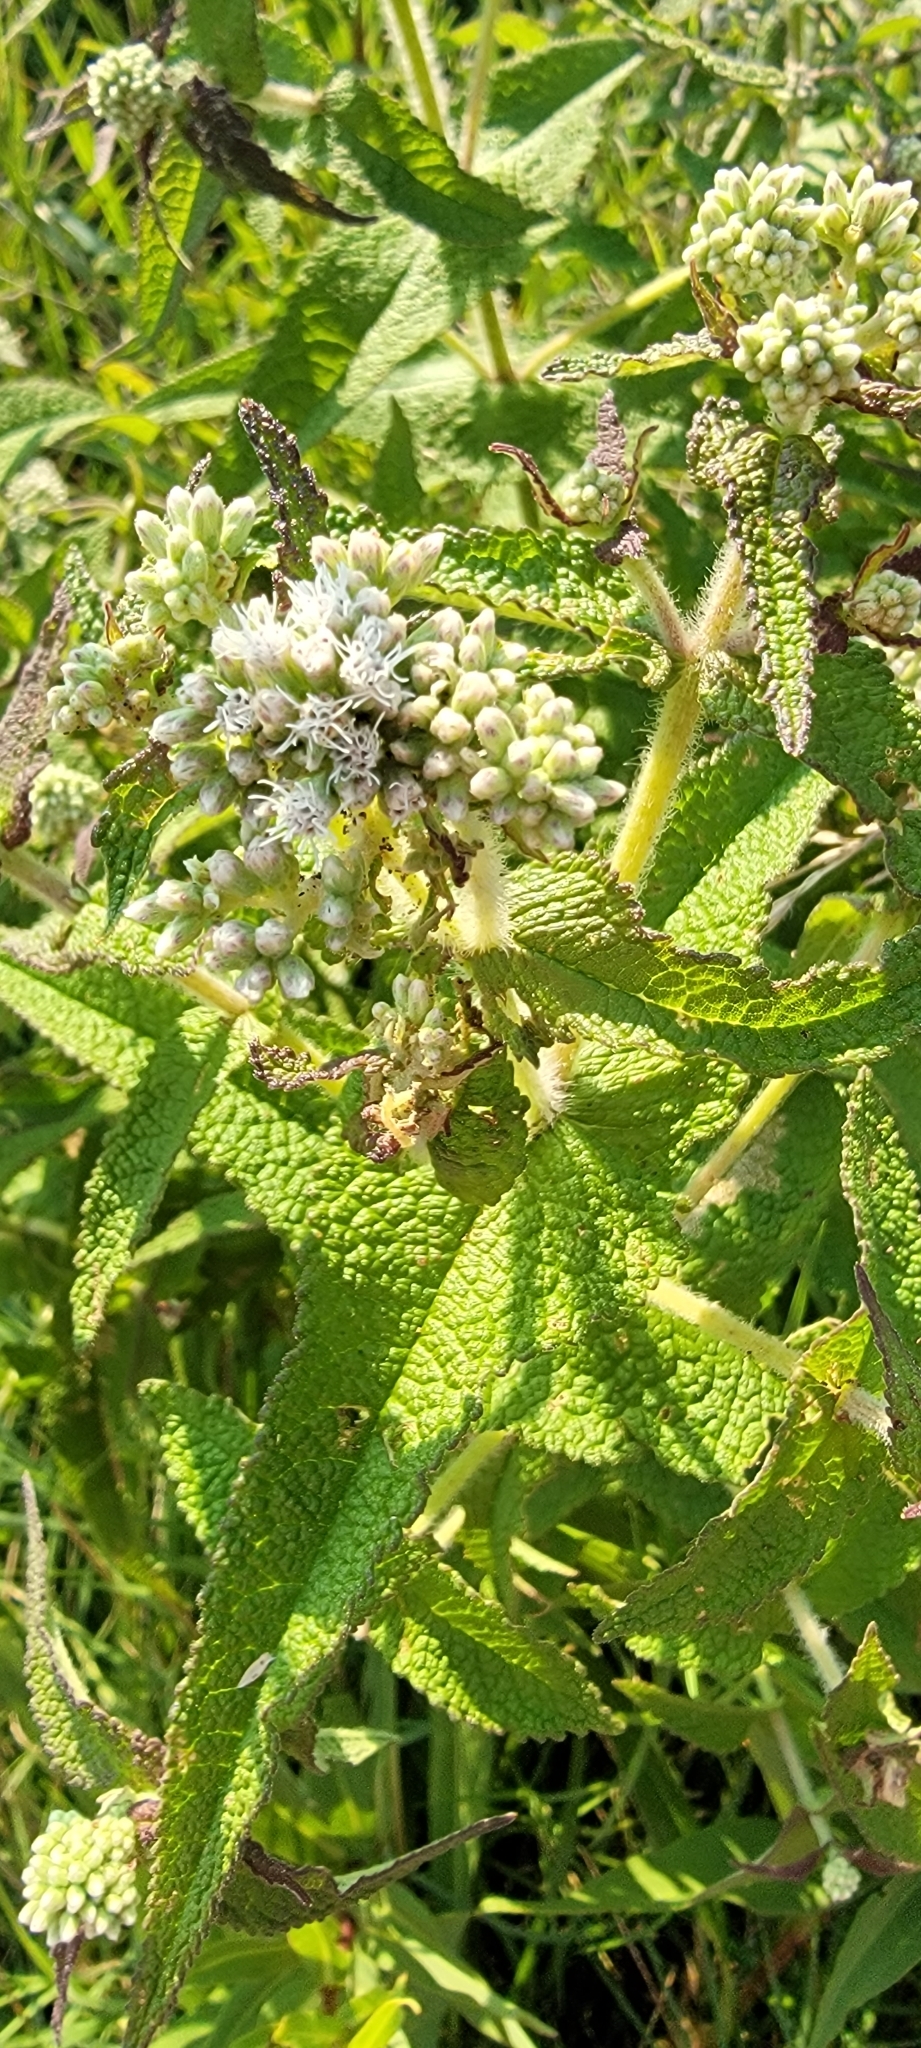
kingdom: Plantae
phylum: Tracheophyta
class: Magnoliopsida
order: Asterales
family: Asteraceae
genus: Eupatorium
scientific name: Eupatorium perfoliatum
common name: Boneset
